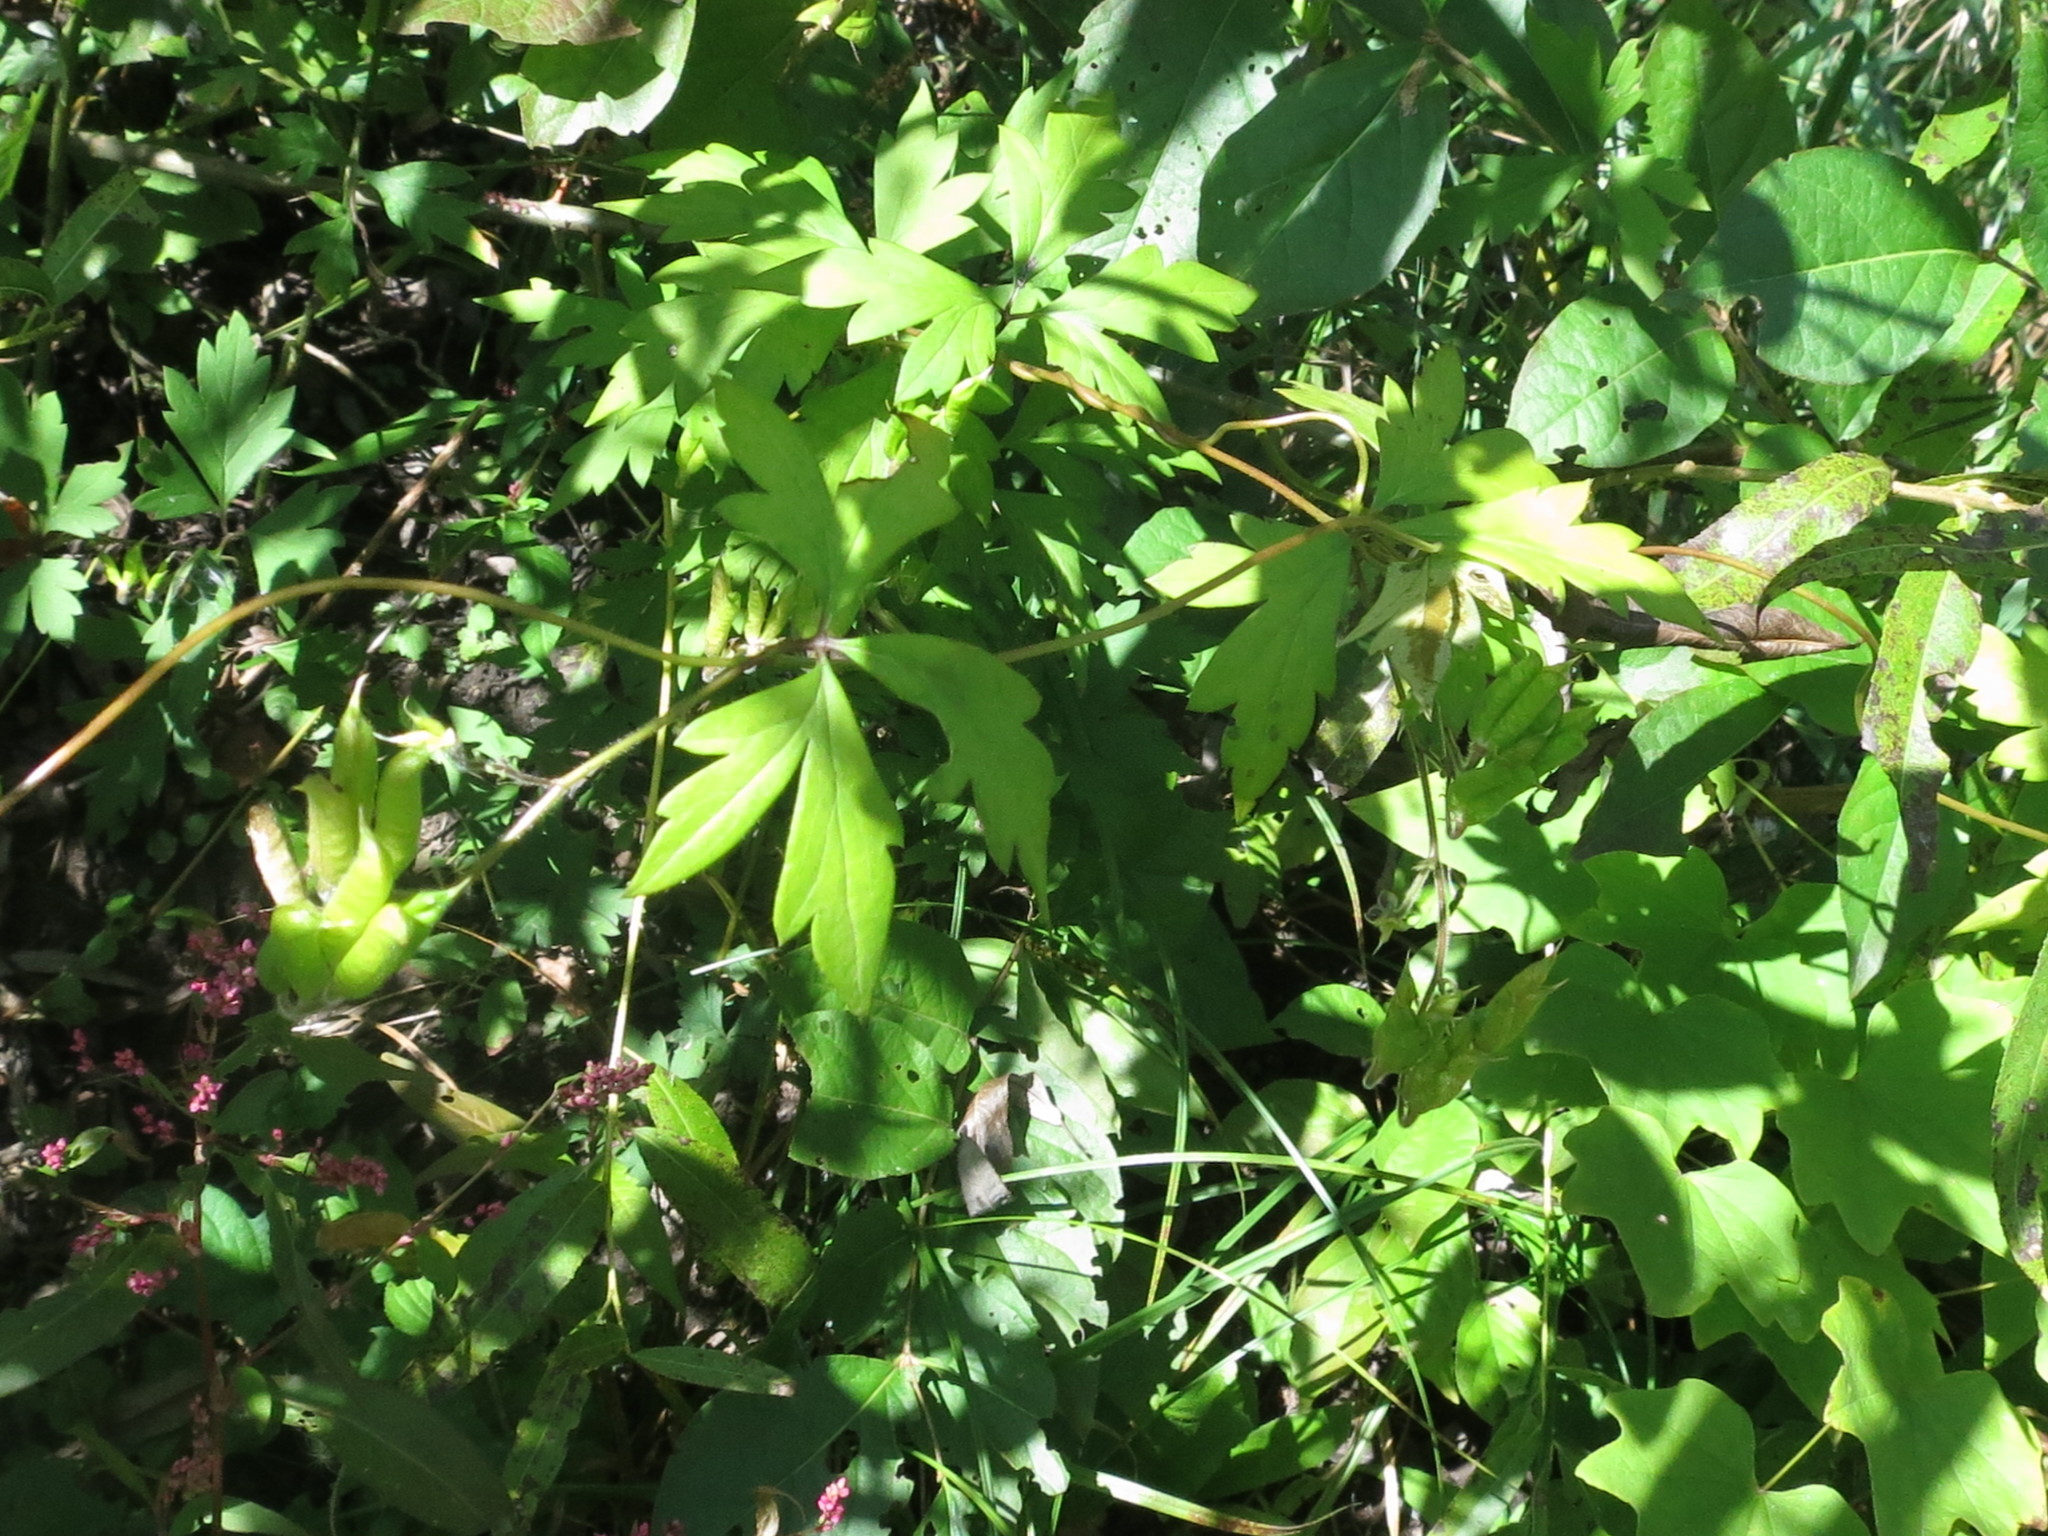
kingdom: Plantae
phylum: Tracheophyta
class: Magnoliopsida
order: Ranunculales
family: Ranunculaceae
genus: Aconitum
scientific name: Aconitum stoloniferum
